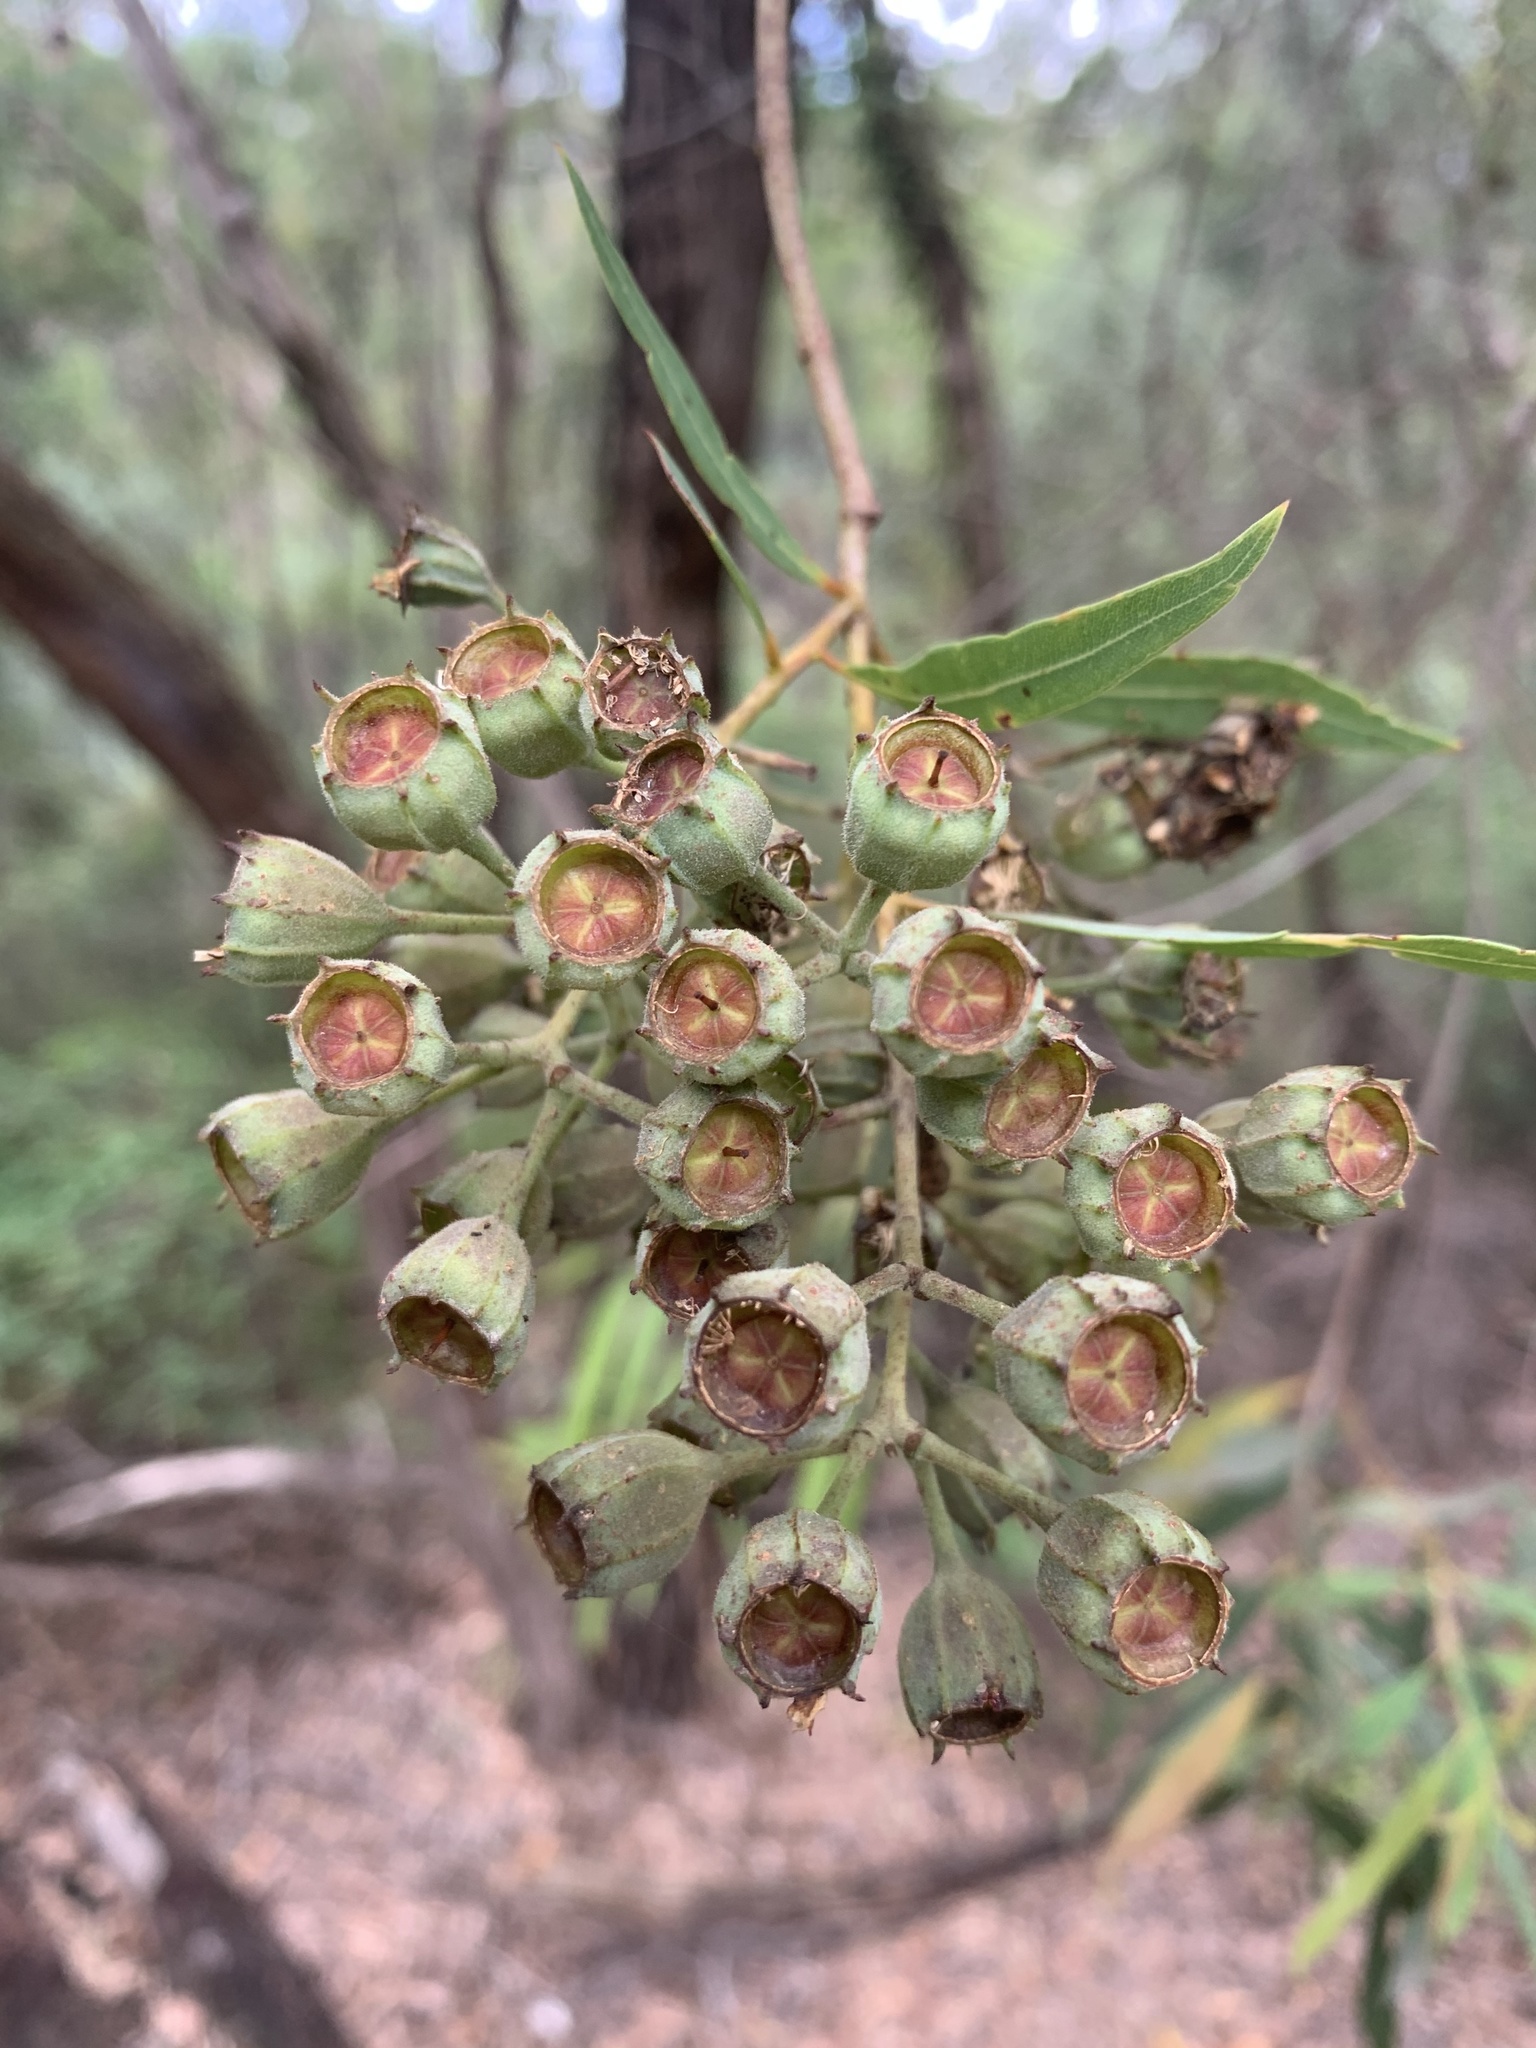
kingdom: Plantae
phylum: Tracheophyta
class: Magnoliopsida
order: Myrtales
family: Myrtaceae
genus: Angophora
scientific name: Angophora bakeri
